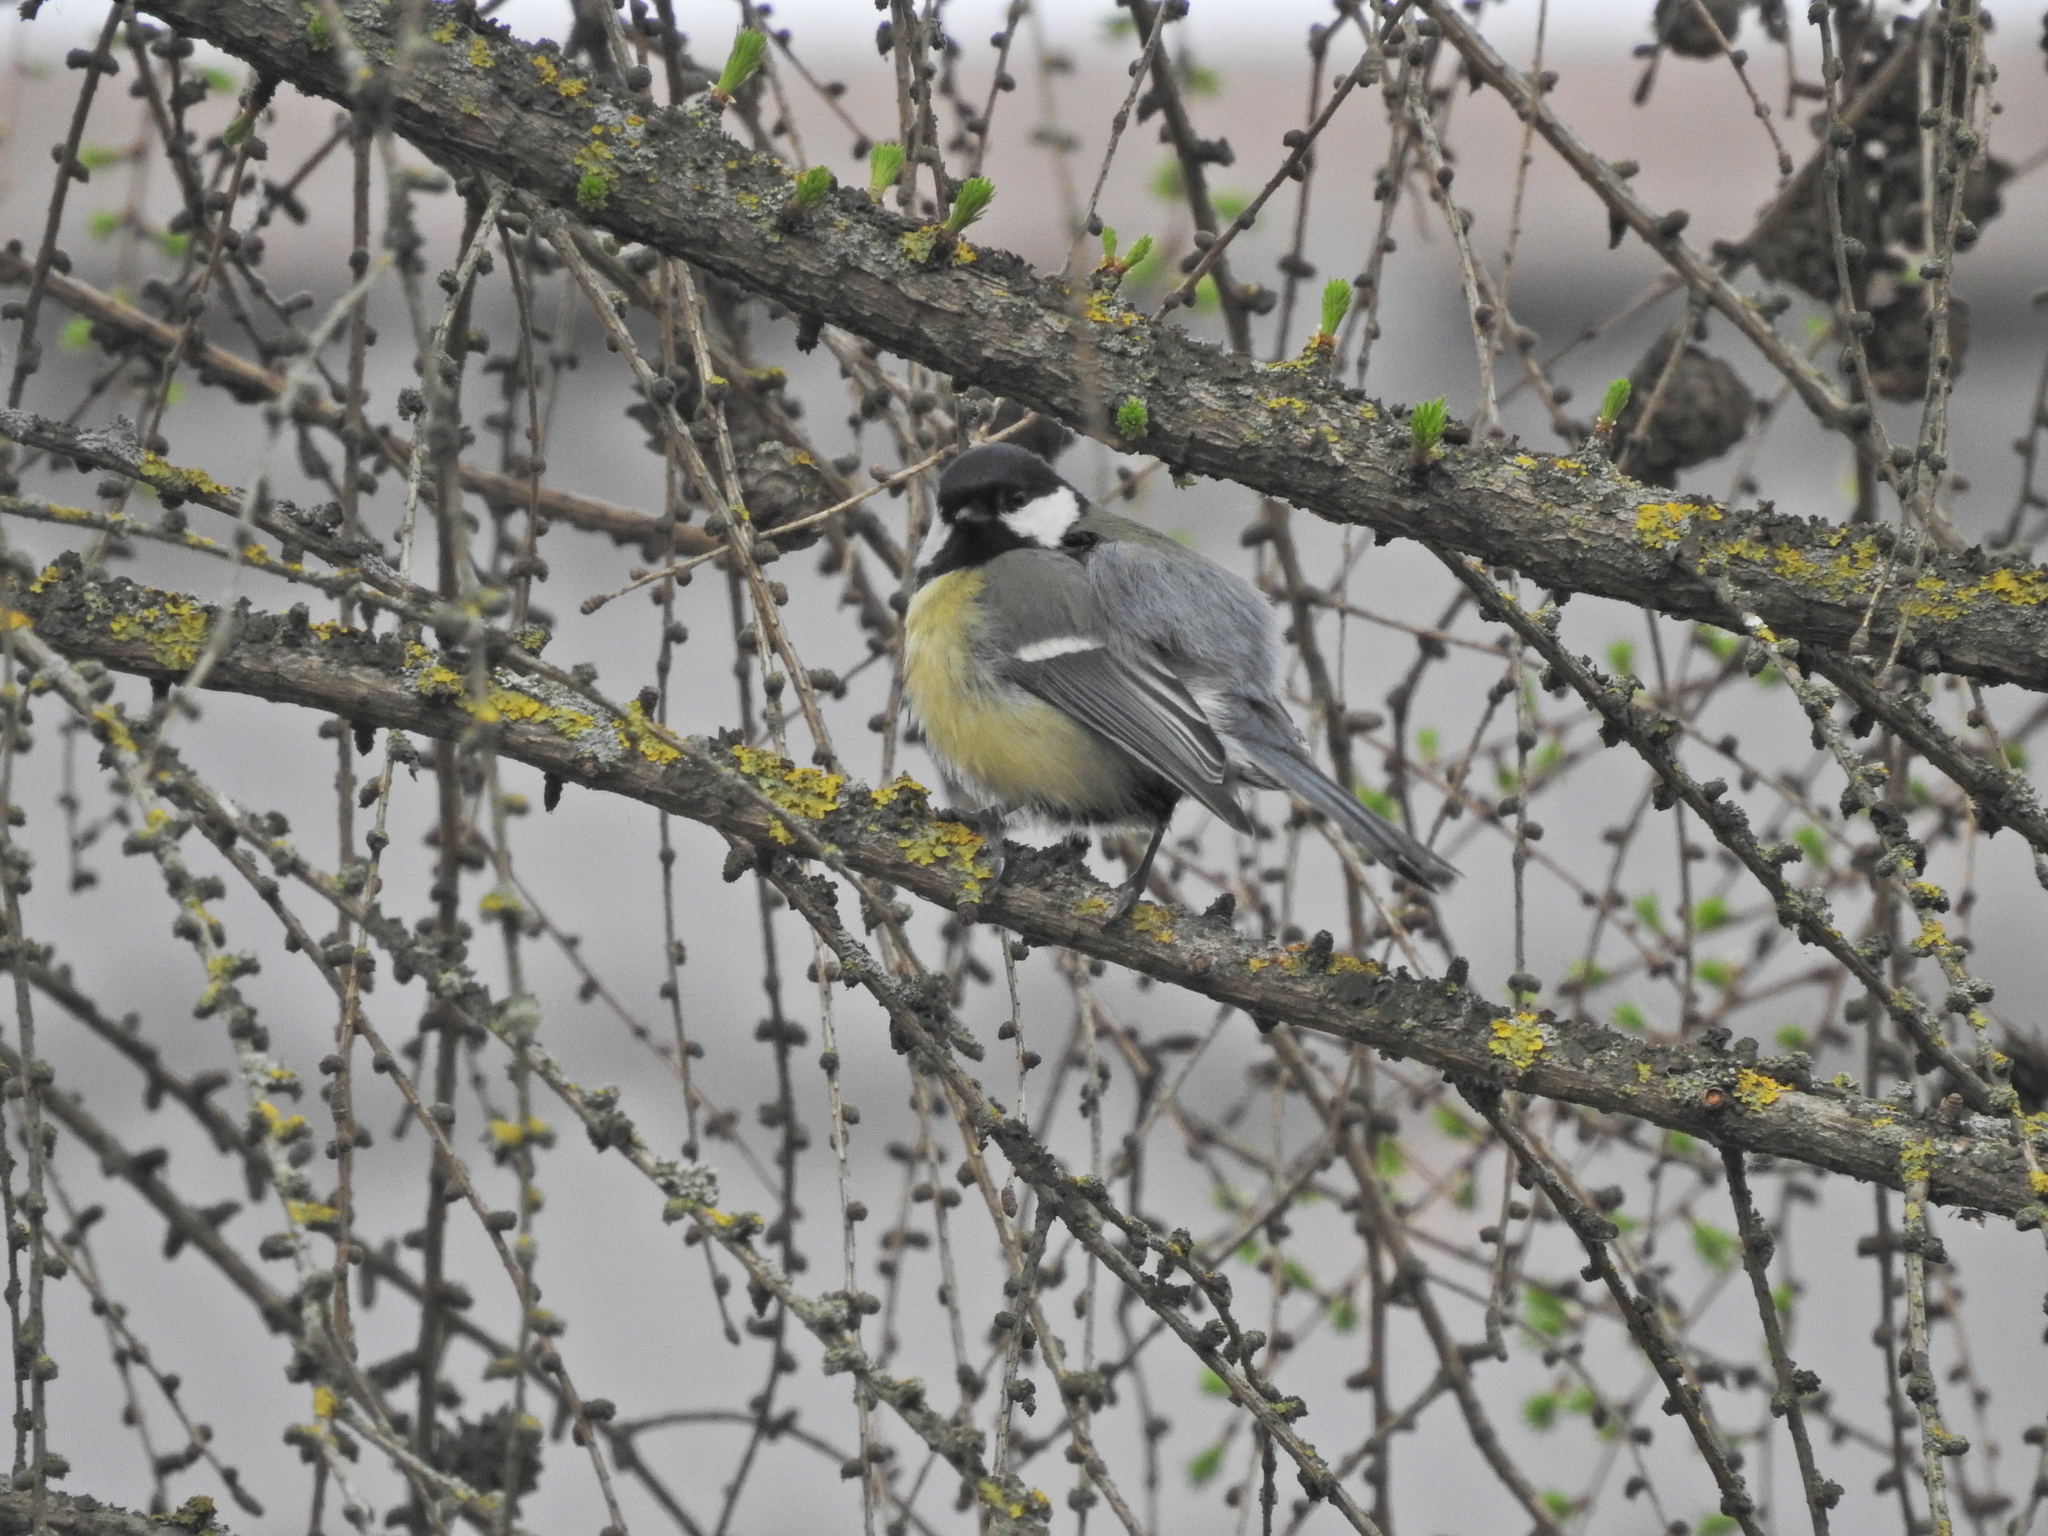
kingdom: Animalia
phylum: Chordata
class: Aves
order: Passeriformes
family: Paridae
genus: Parus
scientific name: Parus major
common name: Great tit
